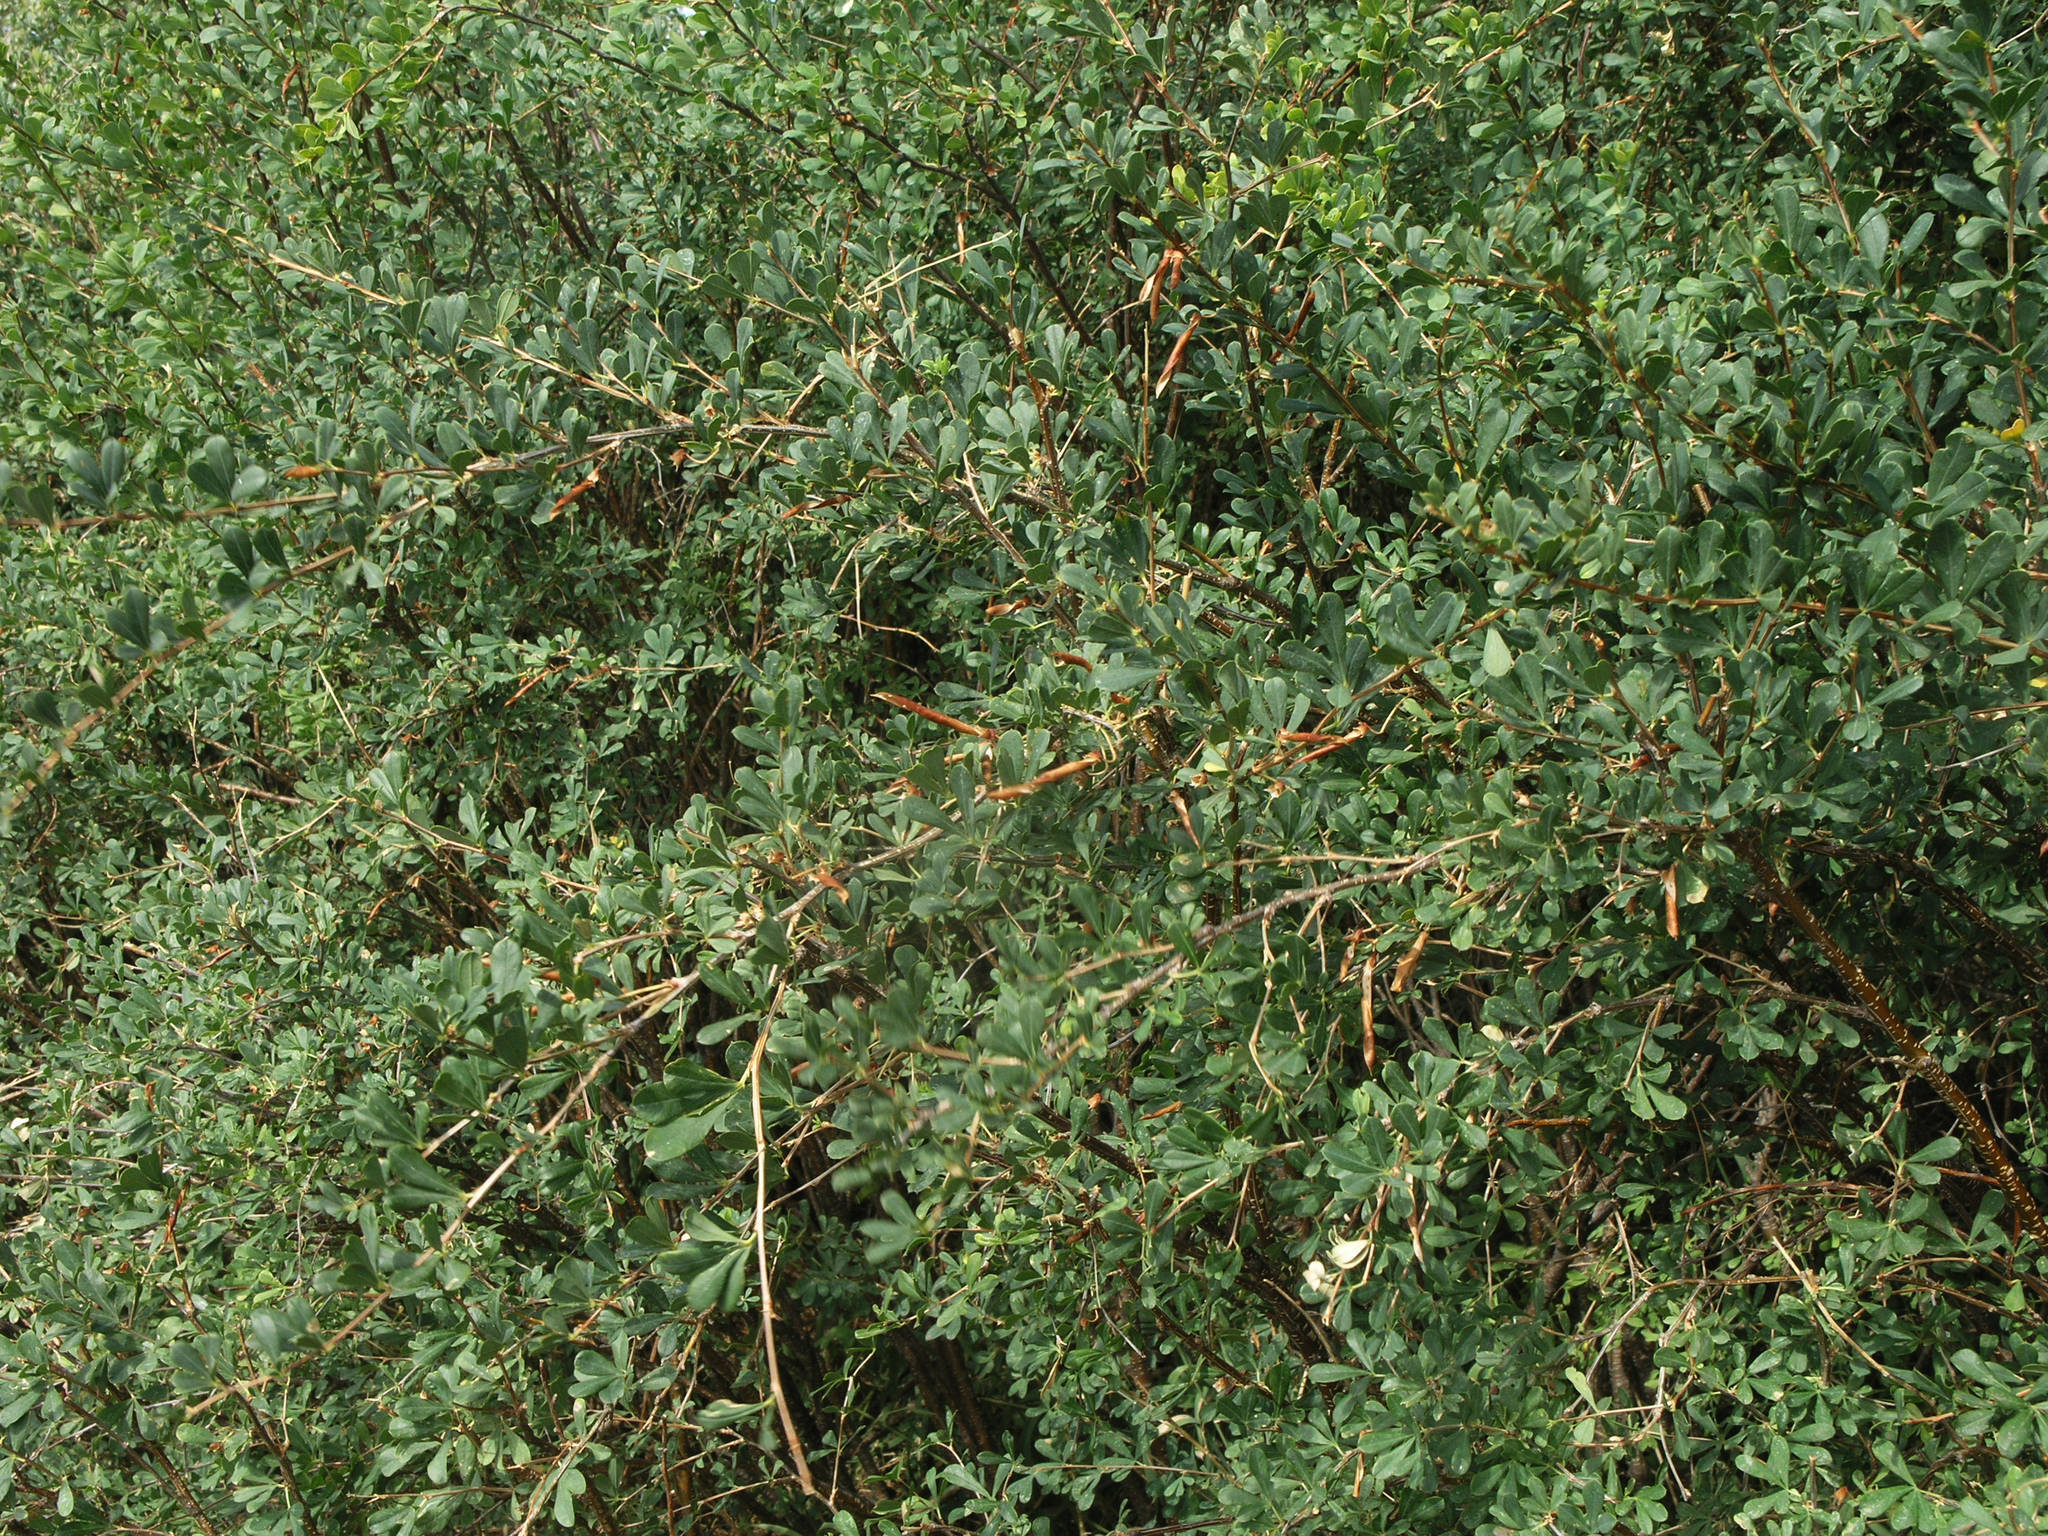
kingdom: Plantae
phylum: Tracheophyta
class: Magnoliopsida
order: Fabales
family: Fabaceae
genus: Caragana
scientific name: Caragana frutex
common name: Russian peashrub
